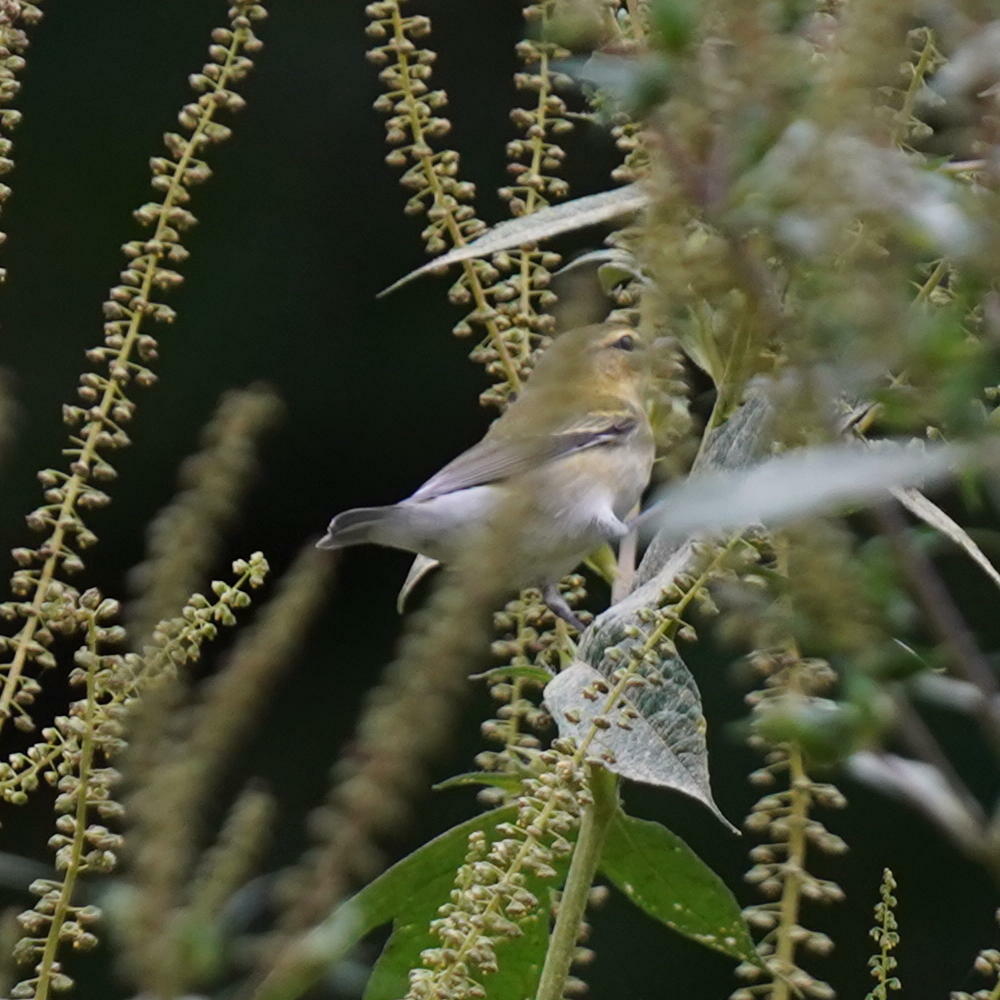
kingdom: Animalia
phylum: Chordata
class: Aves
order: Passeriformes
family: Parulidae
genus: Leiothlypis
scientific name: Leiothlypis peregrina
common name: Tennessee warbler
